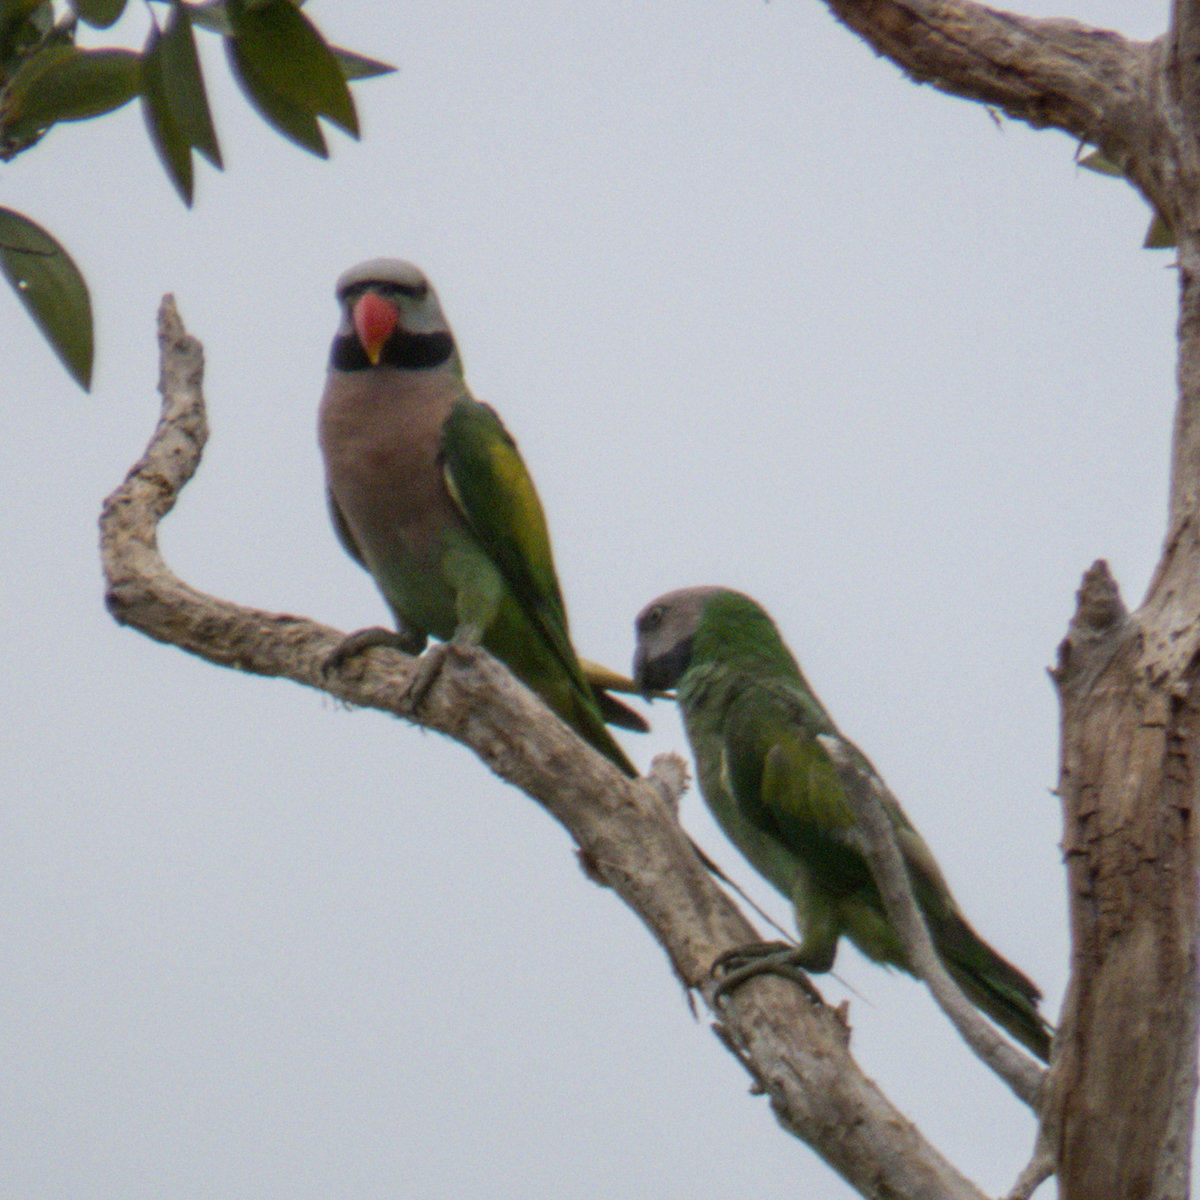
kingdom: Animalia
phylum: Chordata
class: Aves
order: Psittaciformes
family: Psittacidae
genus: Psittacula
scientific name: Psittacula alexandri
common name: Red-breasted parakeet
